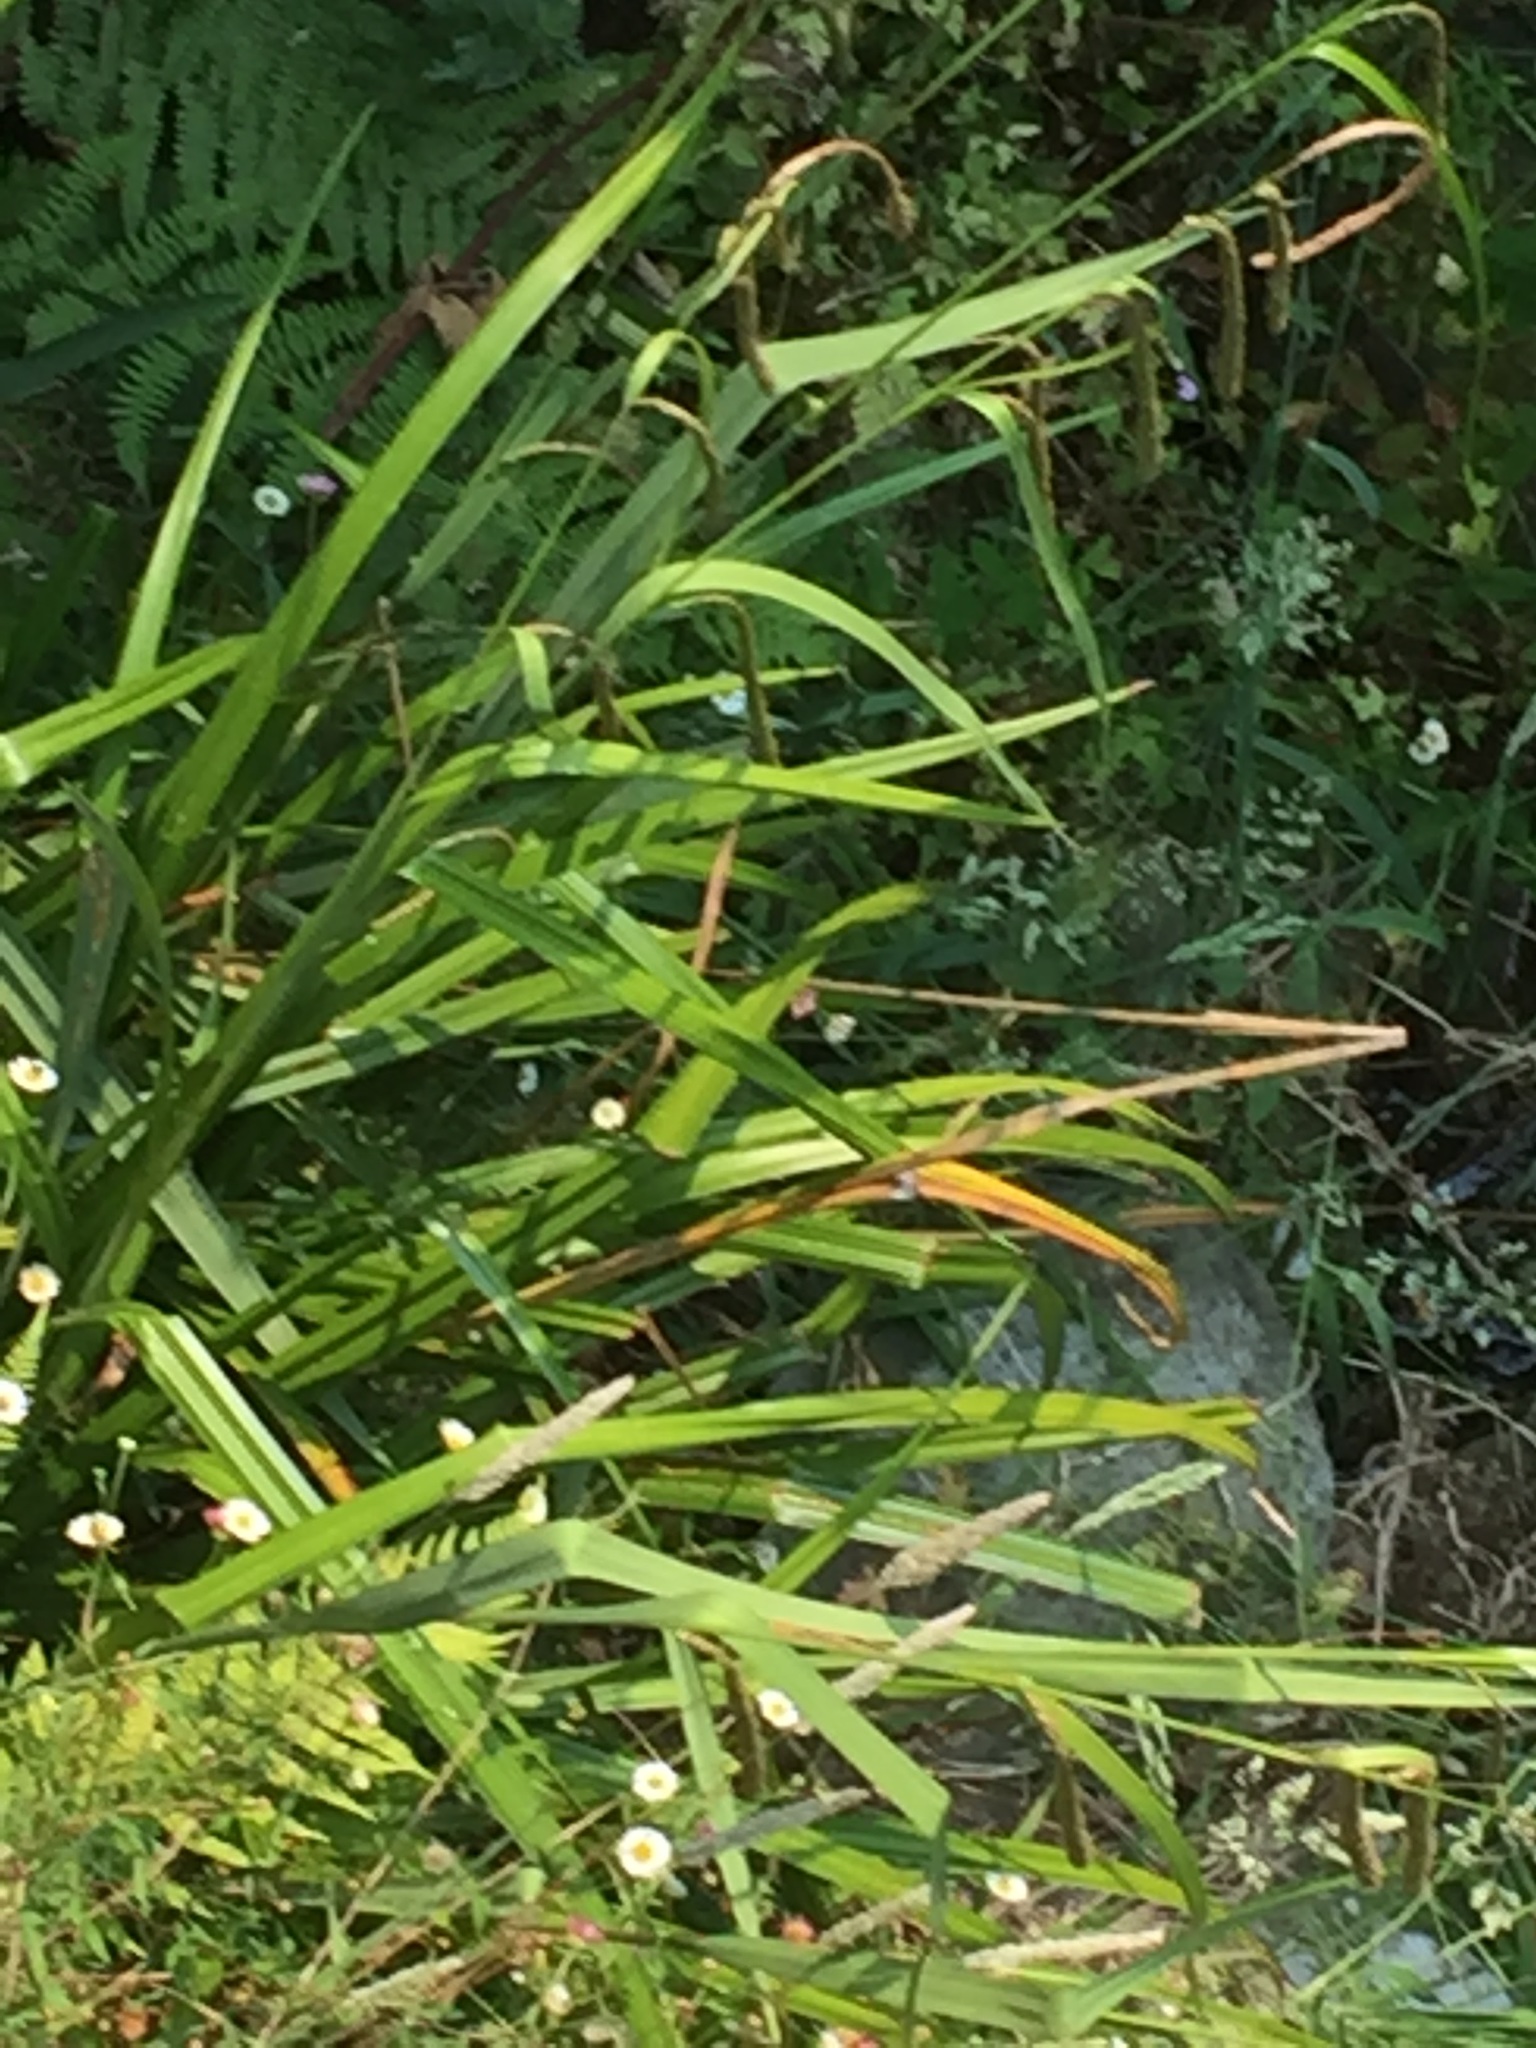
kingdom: Plantae
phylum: Tracheophyta
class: Liliopsida
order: Poales
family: Cyperaceae
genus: Carex
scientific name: Carex pendula
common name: Pendulous sedge
